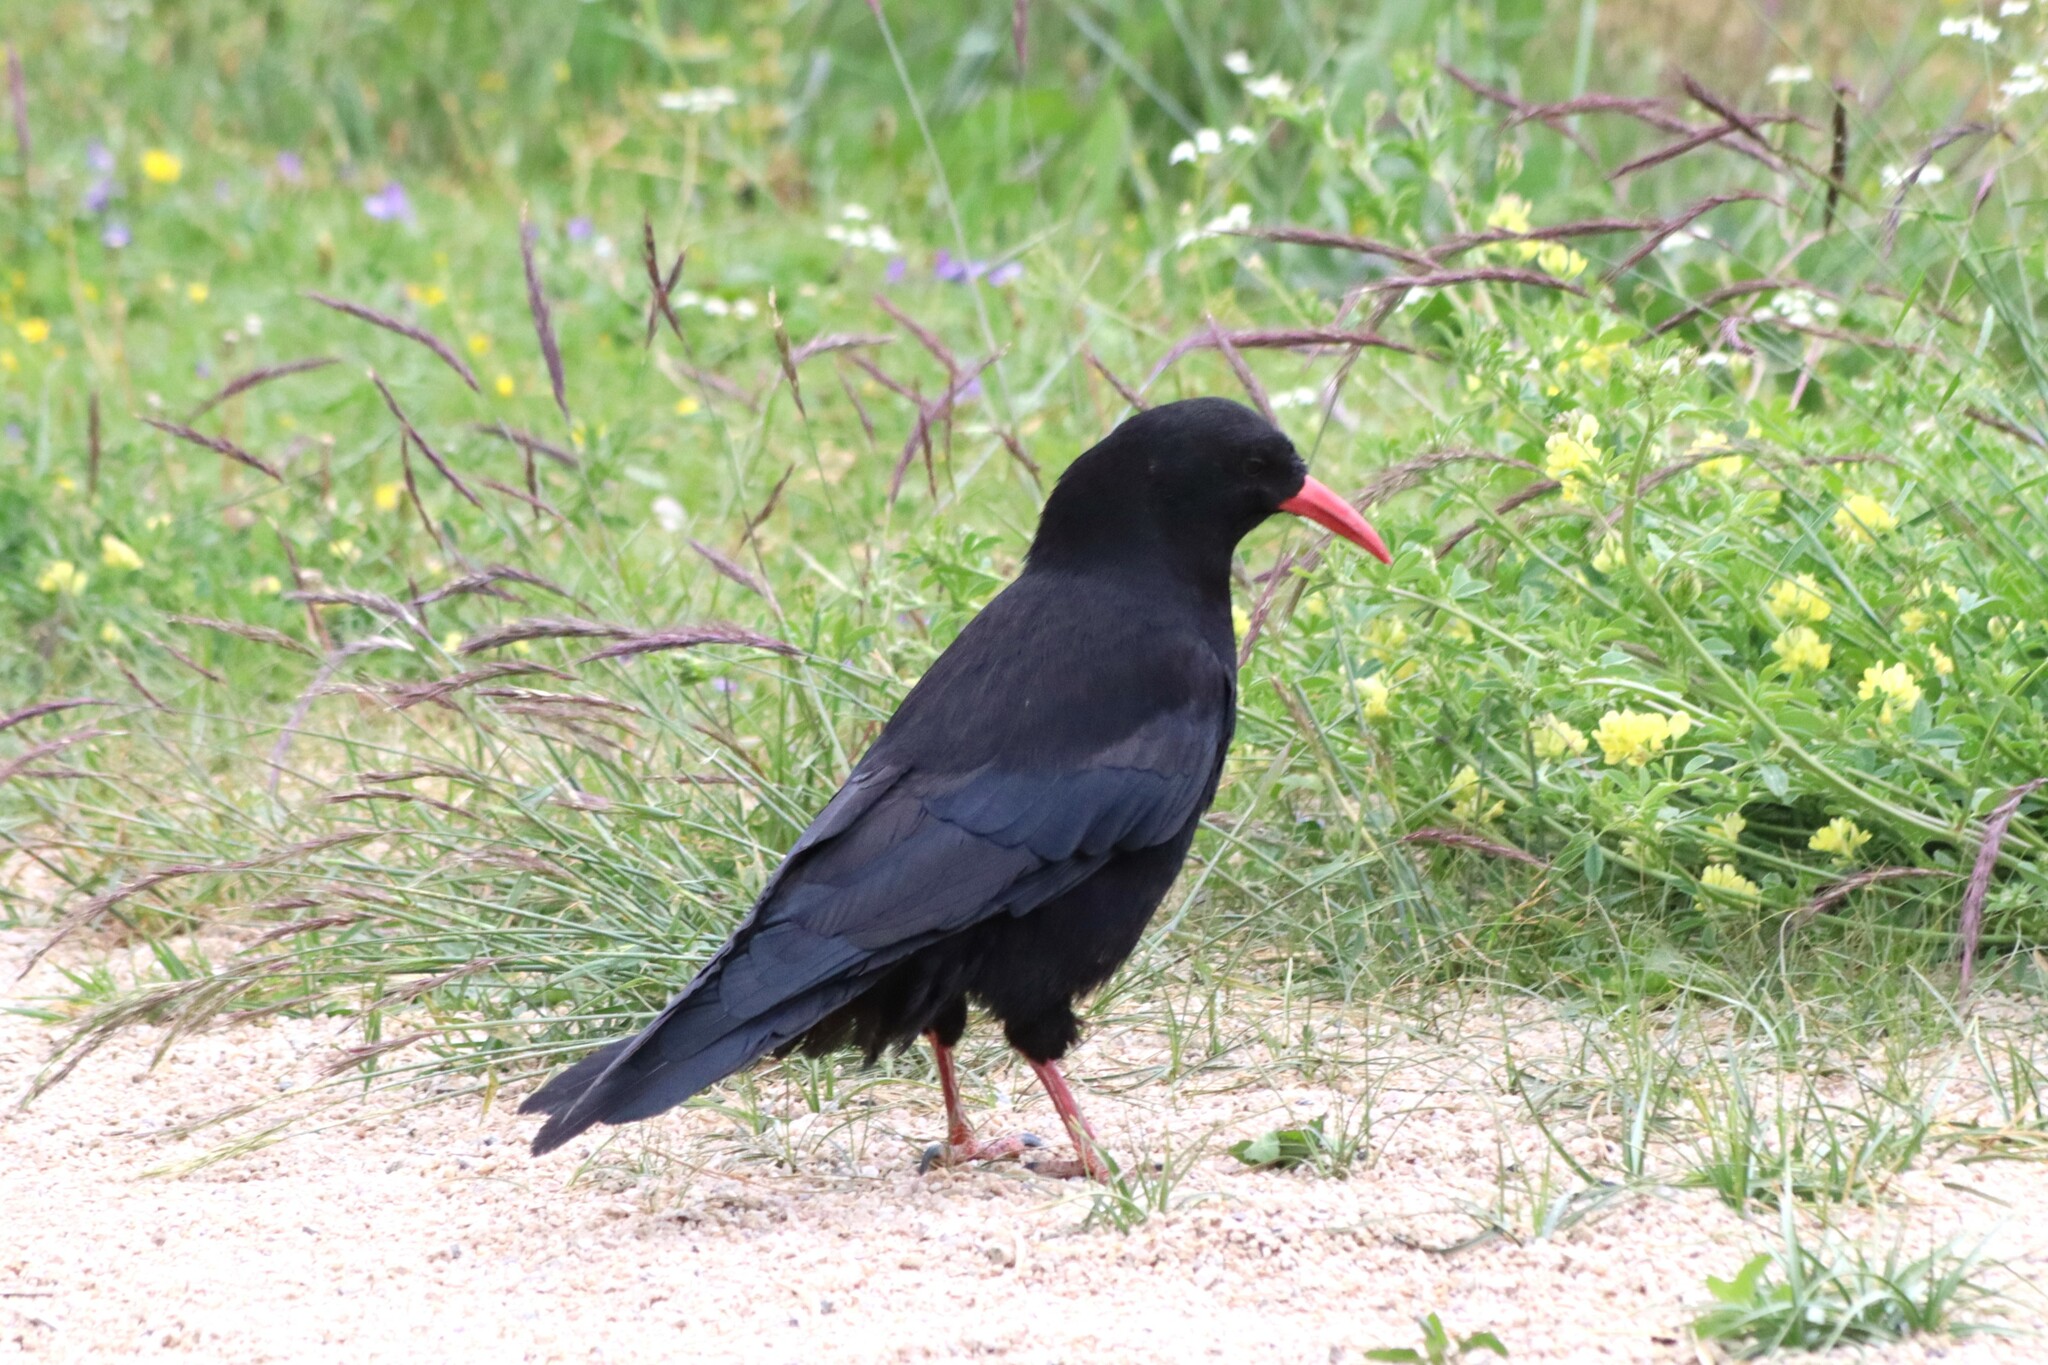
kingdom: Animalia
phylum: Chordata
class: Aves
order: Passeriformes
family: Corvidae
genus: Pyrrhocorax
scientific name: Pyrrhocorax pyrrhocorax
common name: Red-billed chough
